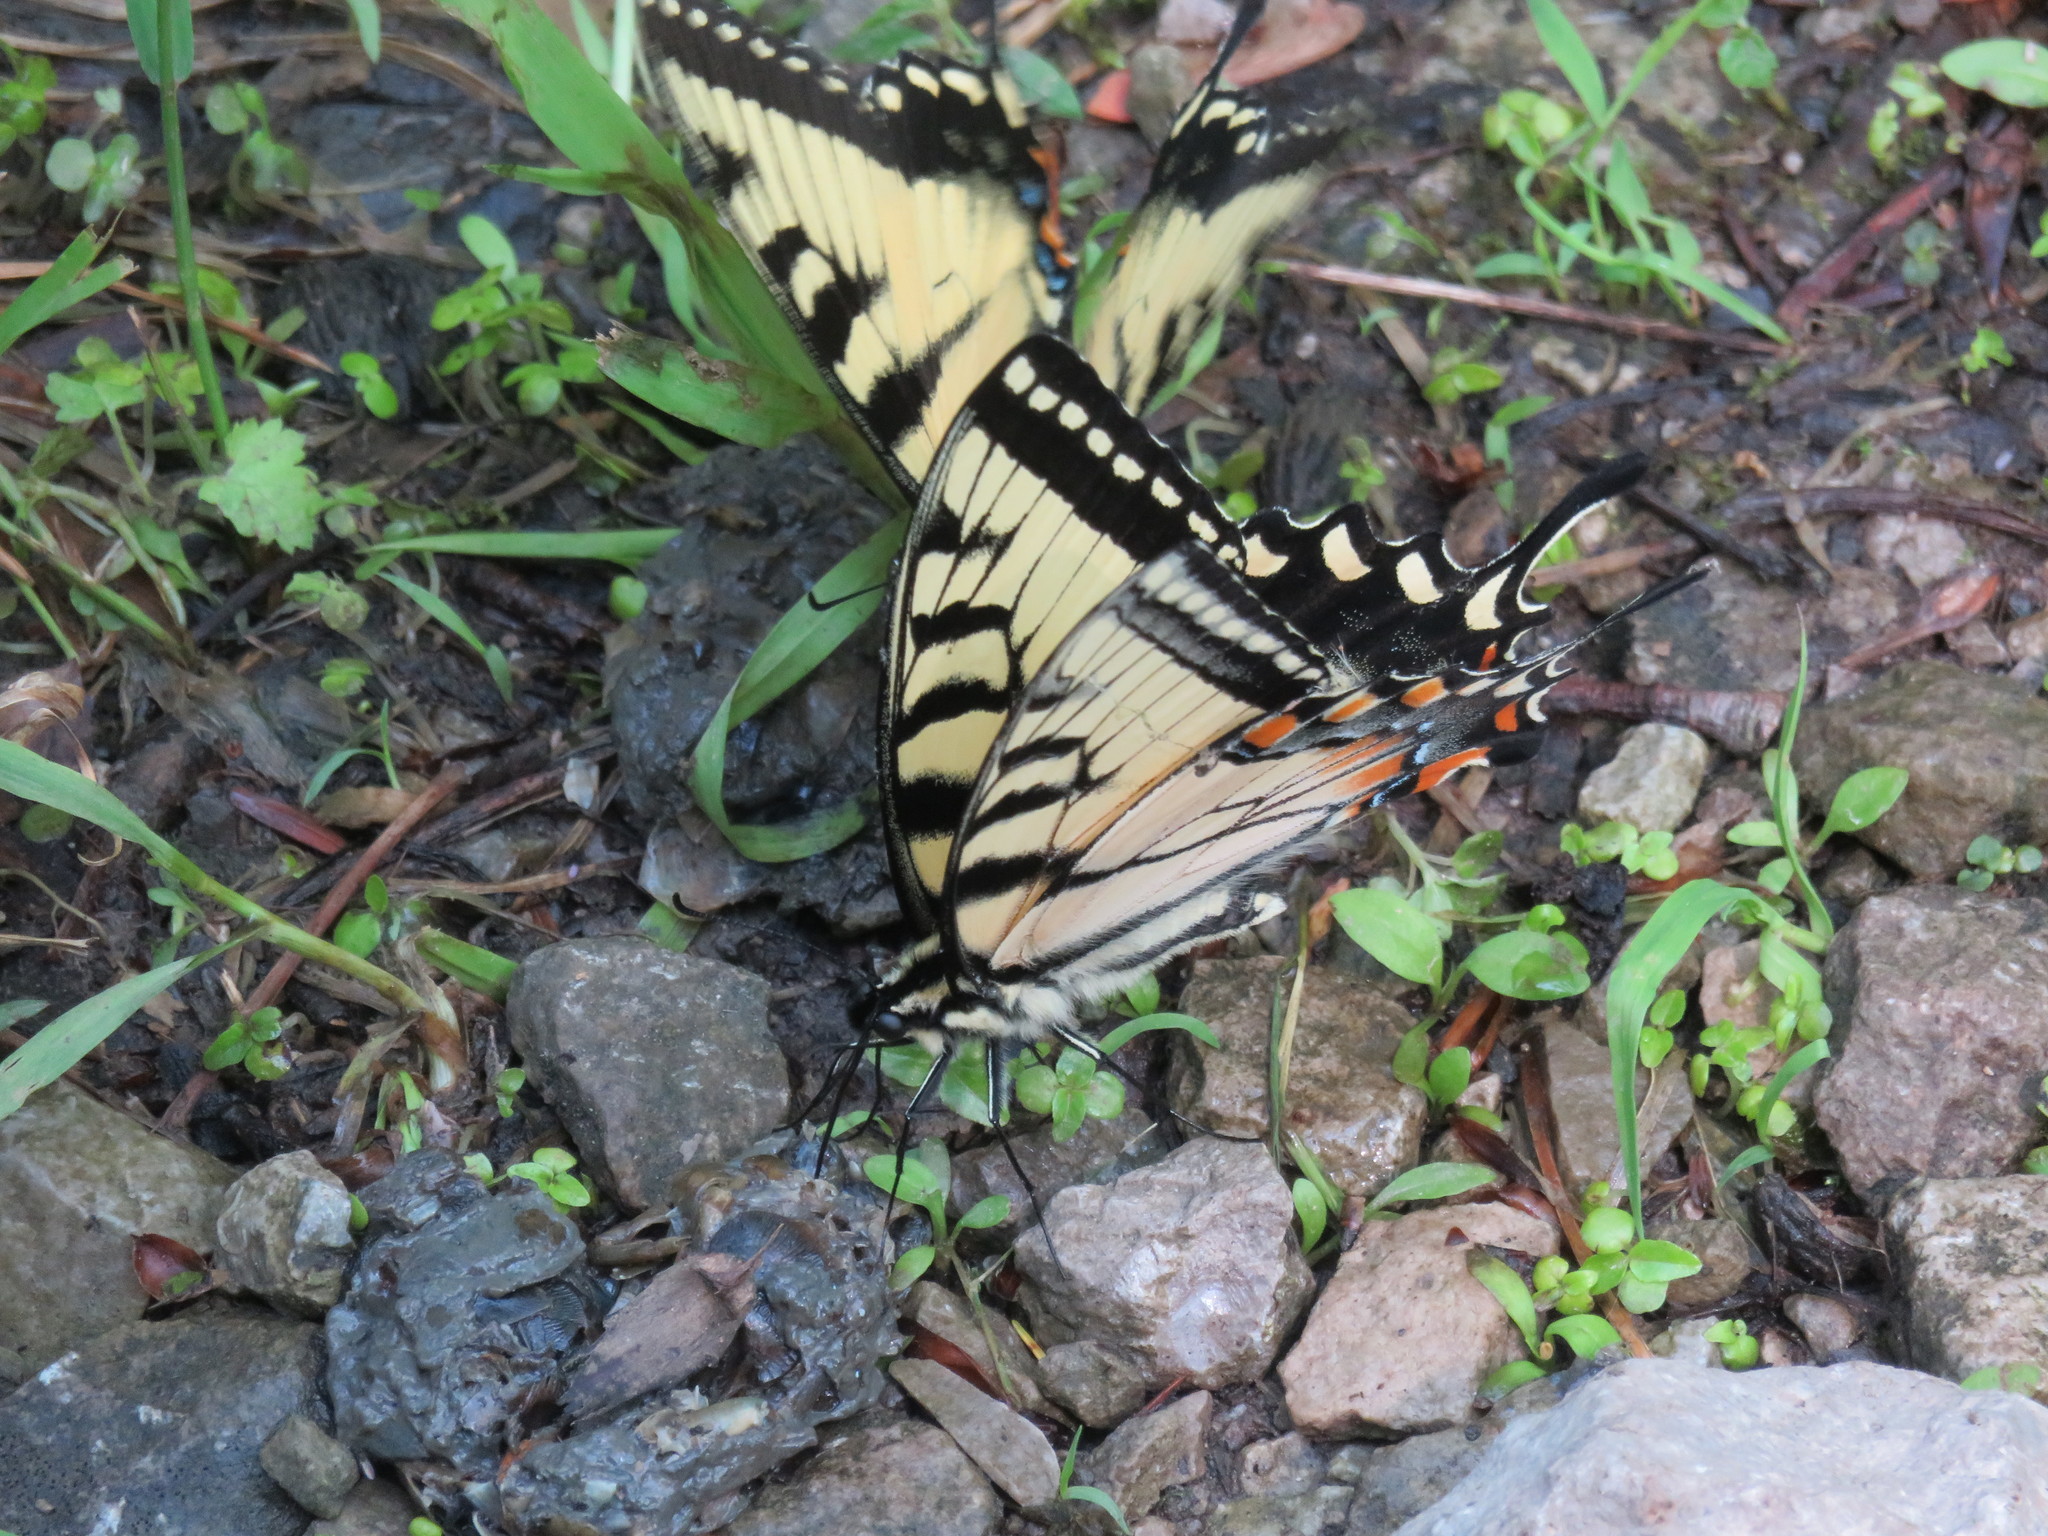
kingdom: Animalia
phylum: Arthropoda
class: Insecta
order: Lepidoptera
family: Papilionidae
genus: Papilio
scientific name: Papilio glaucus
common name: Tiger swallowtail
